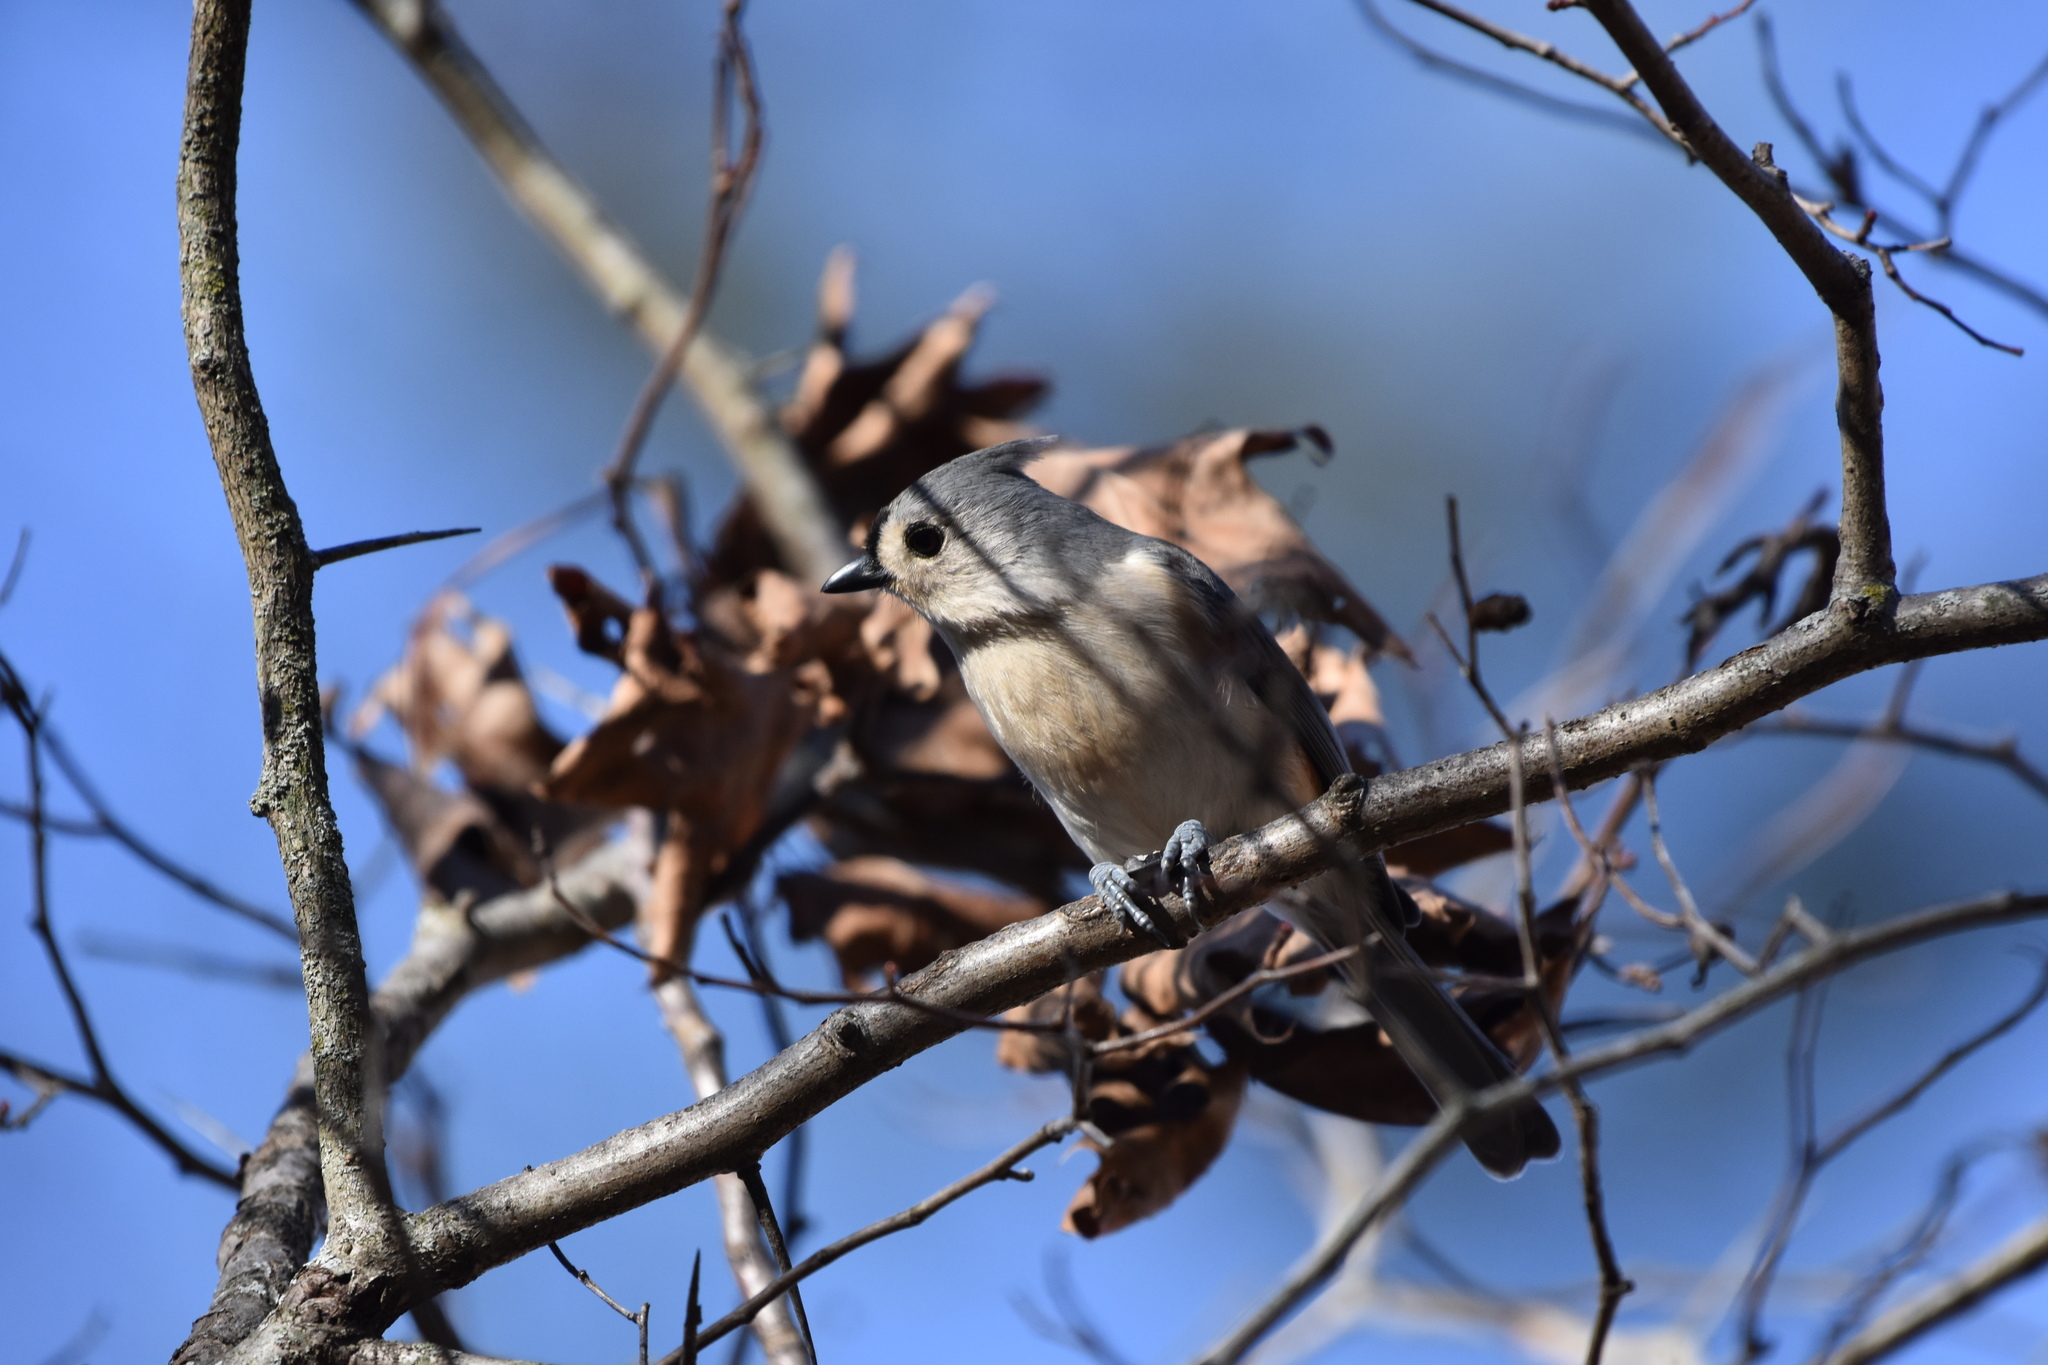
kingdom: Animalia
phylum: Chordata
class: Aves
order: Passeriformes
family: Paridae
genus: Baeolophus
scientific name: Baeolophus bicolor
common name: Tufted titmouse
